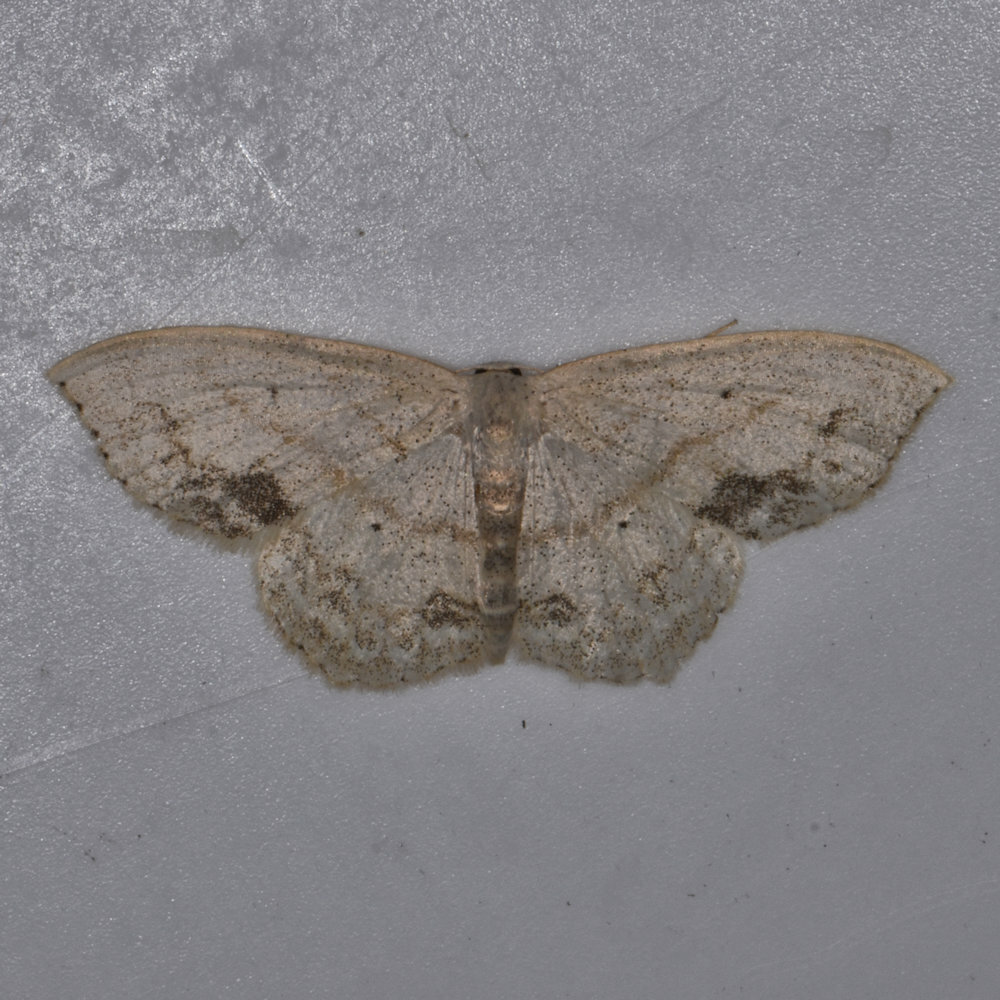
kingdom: Animalia
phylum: Arthropoda
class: Insecta
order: Lepidoptera
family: Geometridae
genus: Scopula
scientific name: Scopula limboundata
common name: Large lace border
